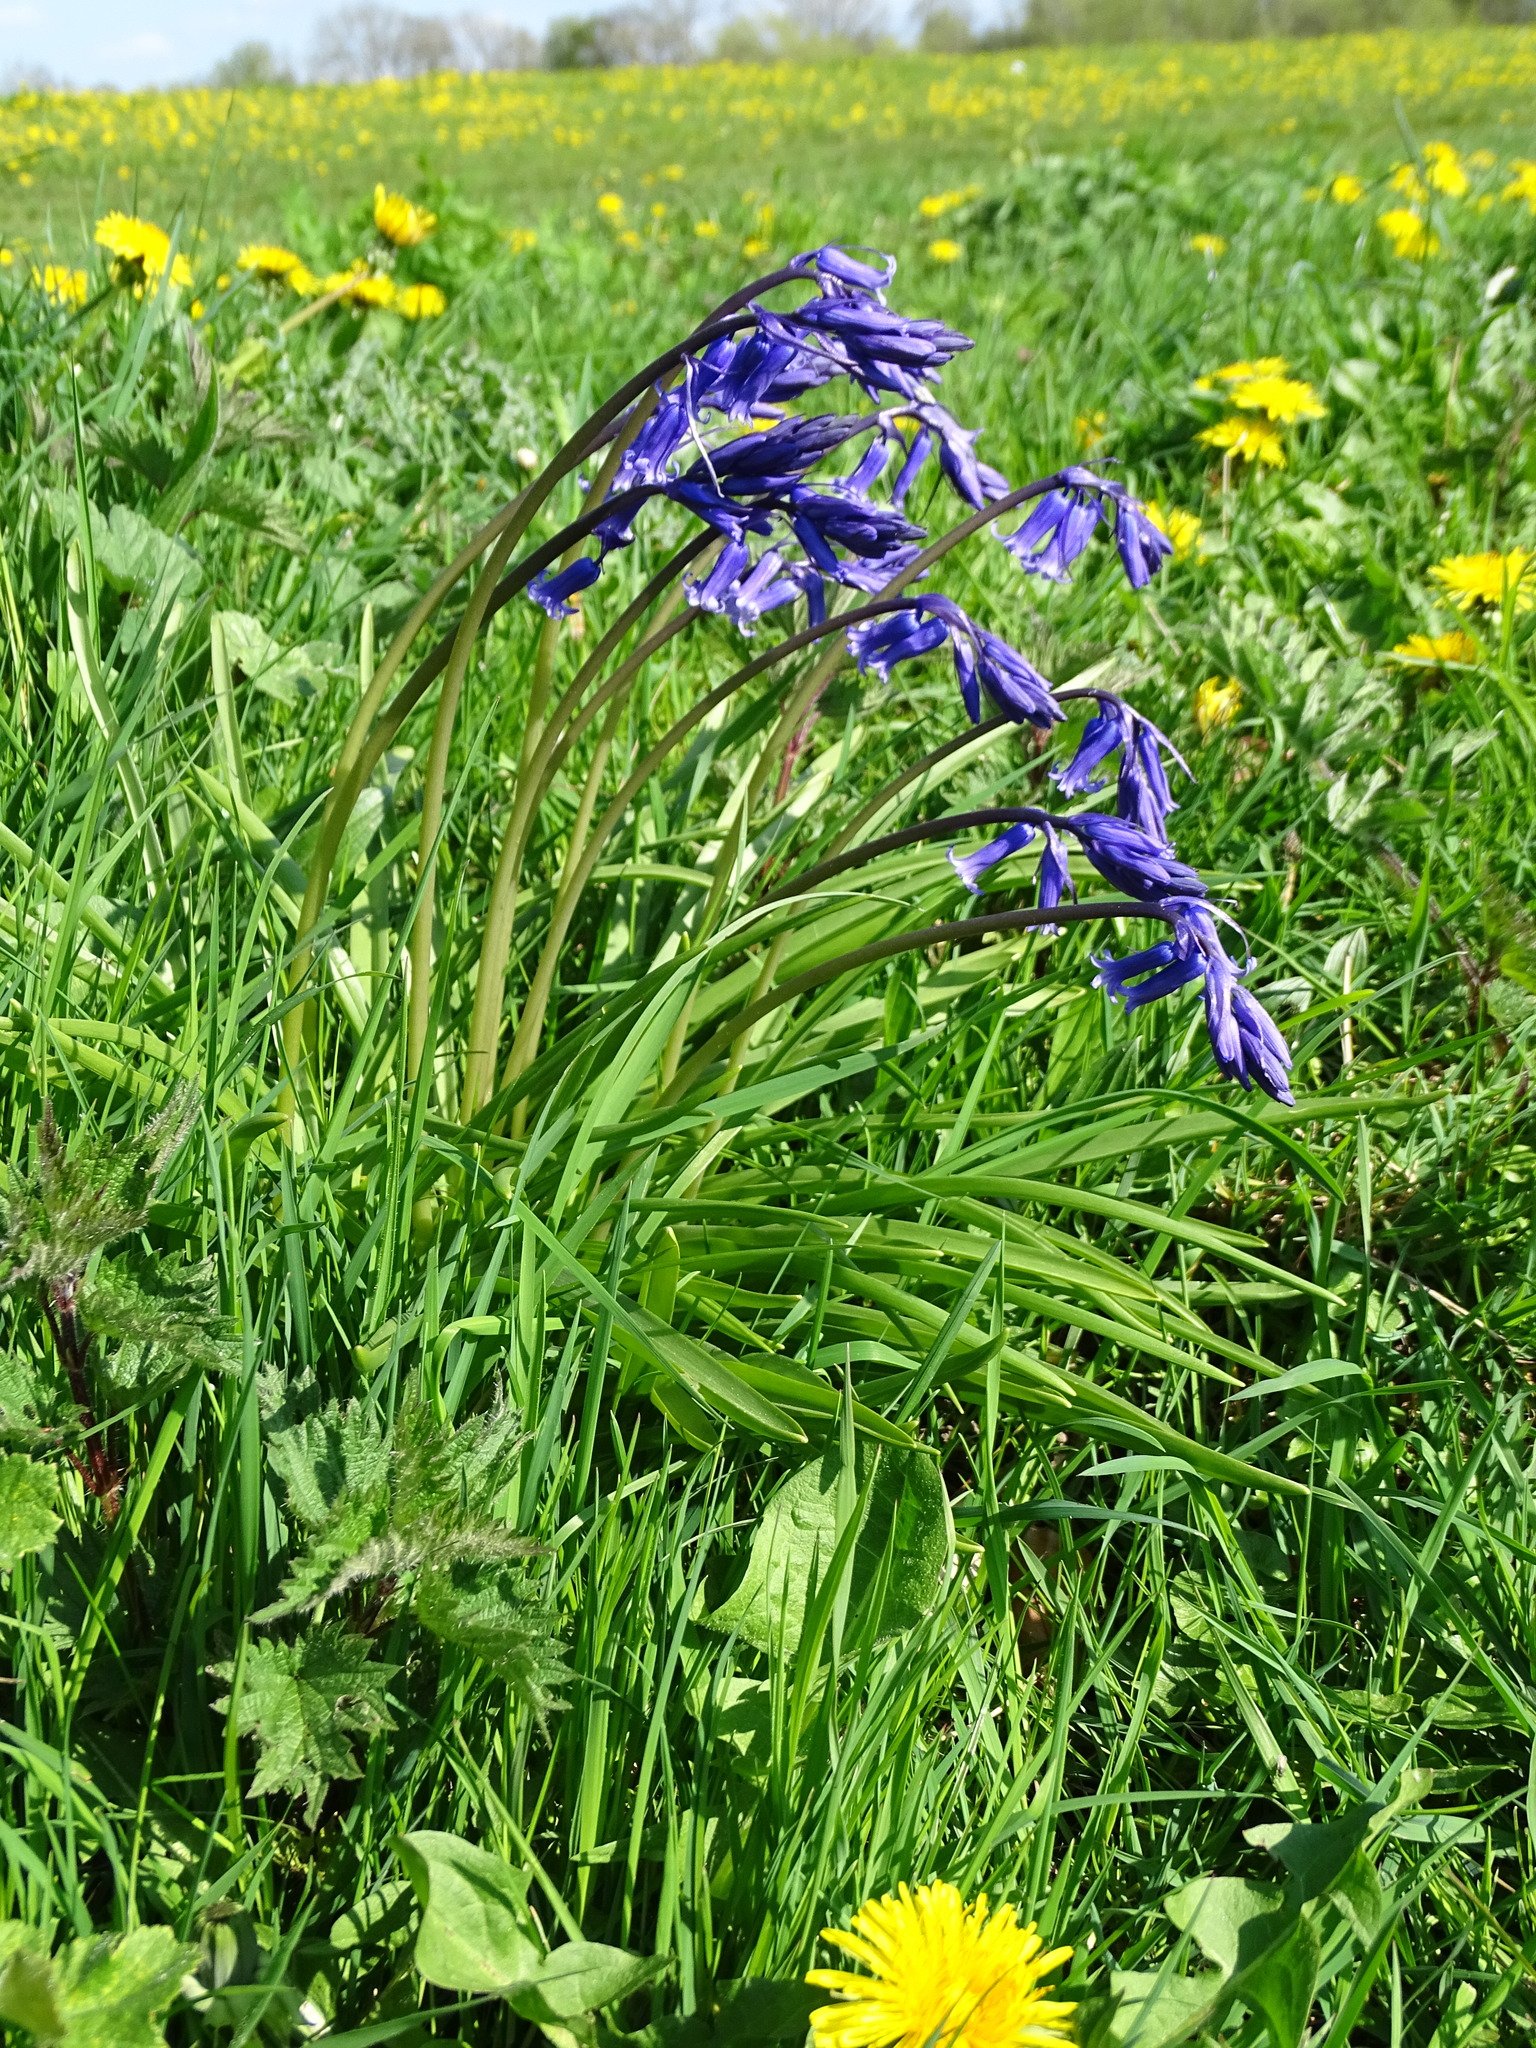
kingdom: Plantae
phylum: Tracheophyta
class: Liliopsida
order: Asparagales
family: Asparagaceae
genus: Hyacinthoides
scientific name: Hyacinthoides non-scripta
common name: Bluebell
